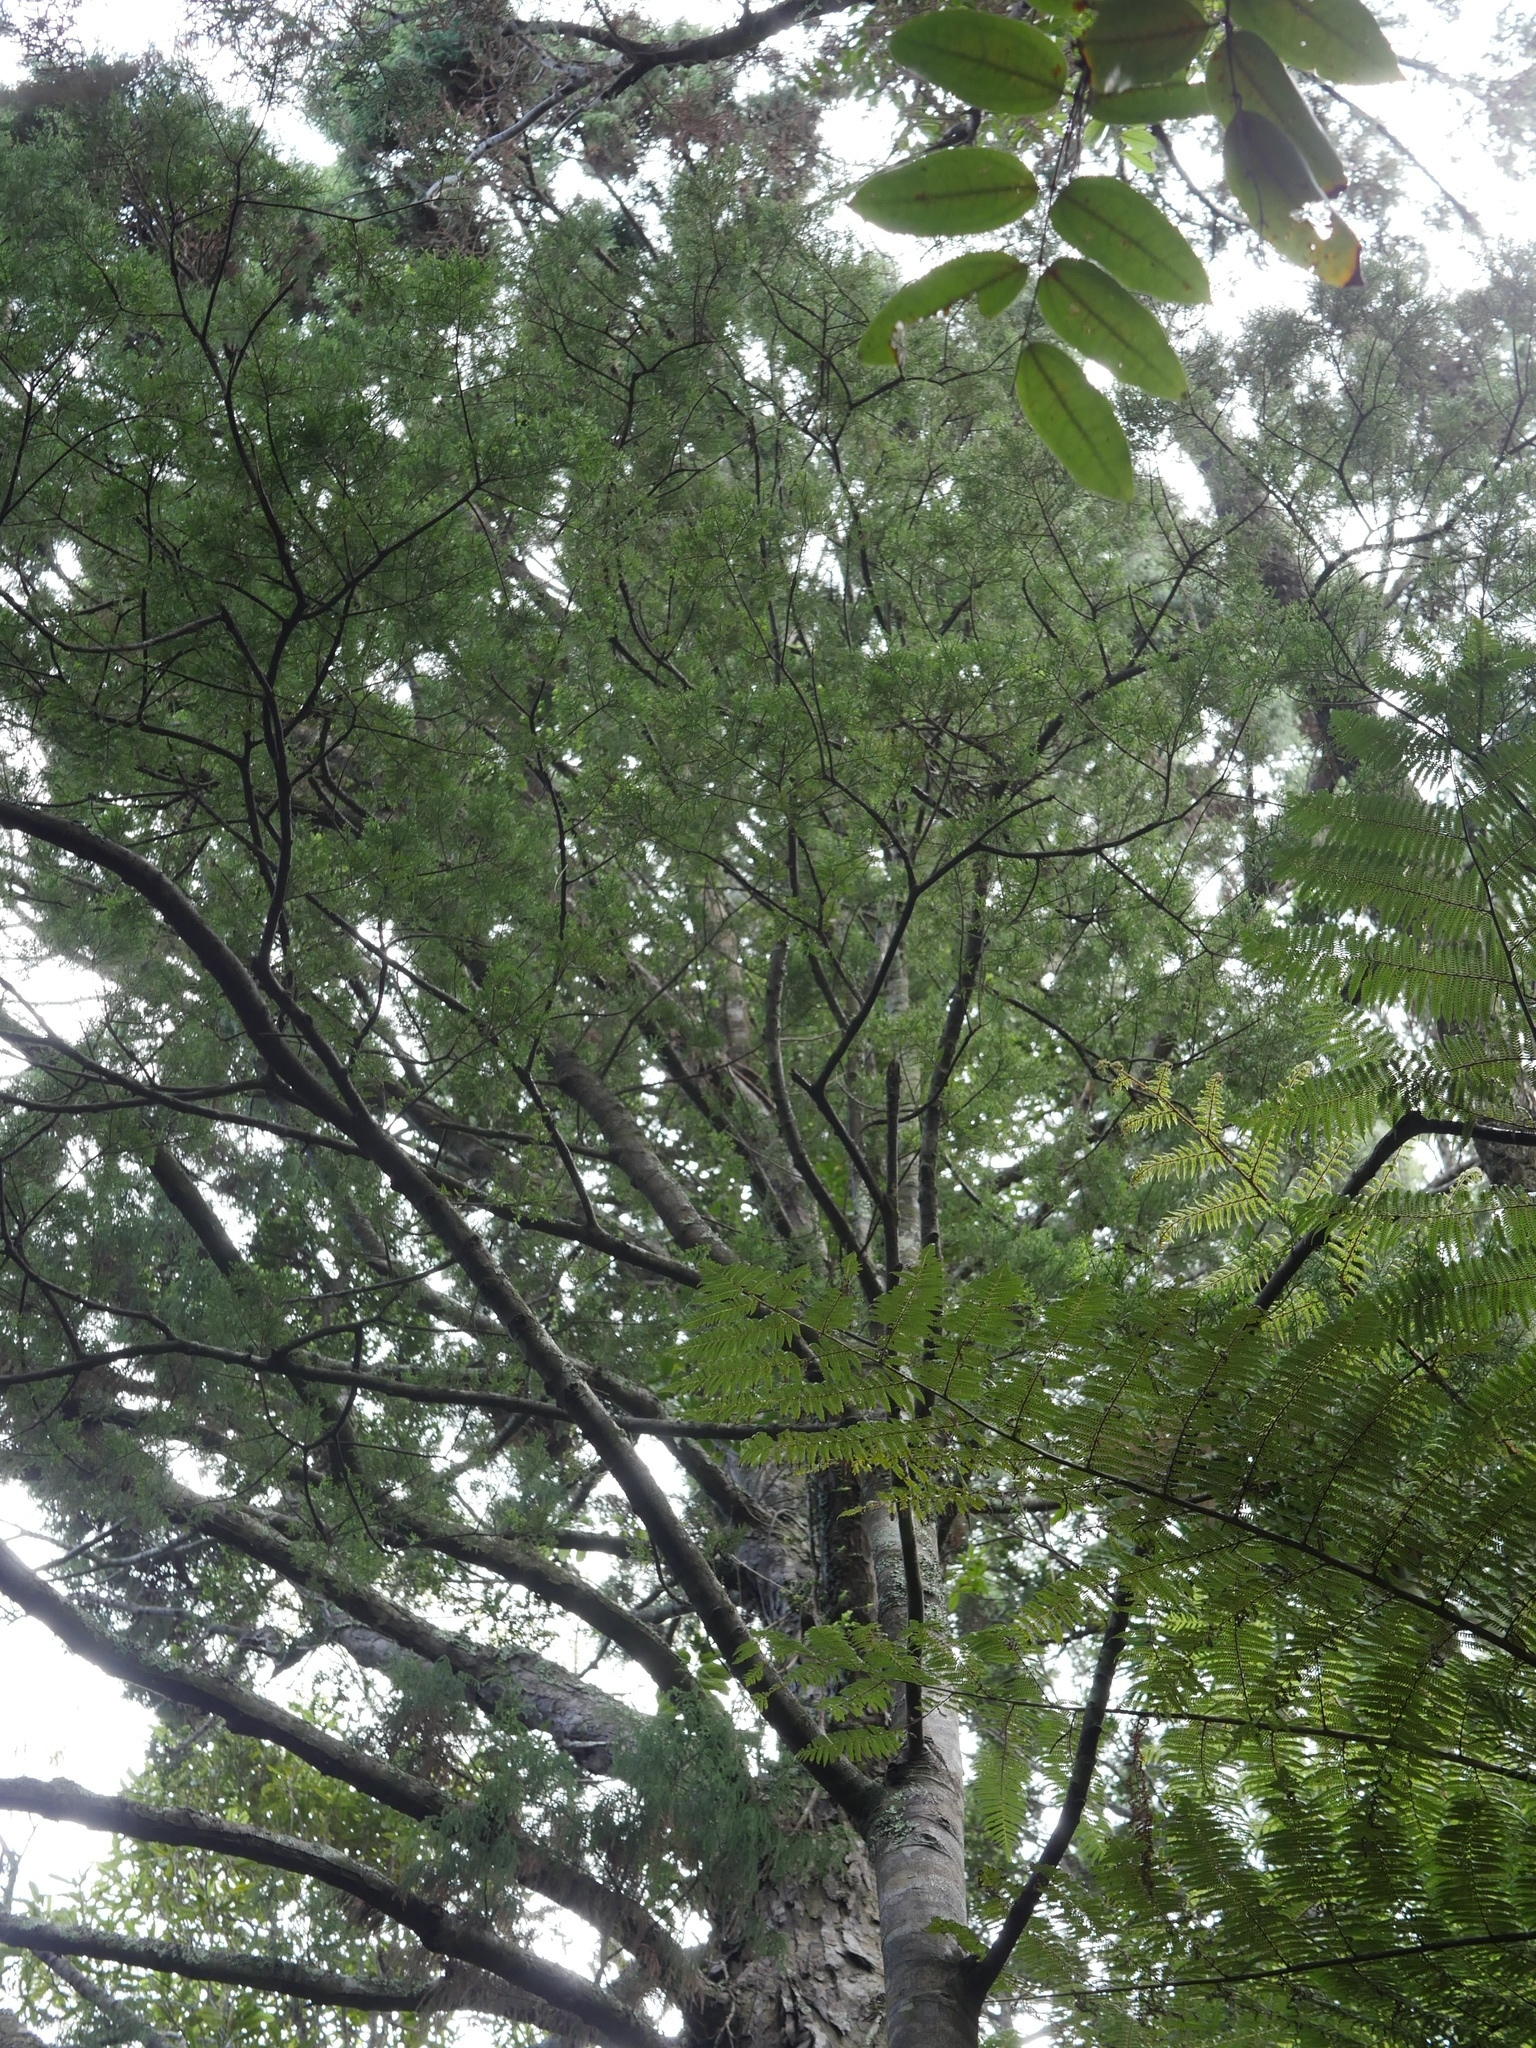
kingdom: Plantae
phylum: Tracheophyta
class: Pinopsida
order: Pinales
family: Podocarpaceae
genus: Dacrycarpus
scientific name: Dacrycarpus dacrydioides
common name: White pine
